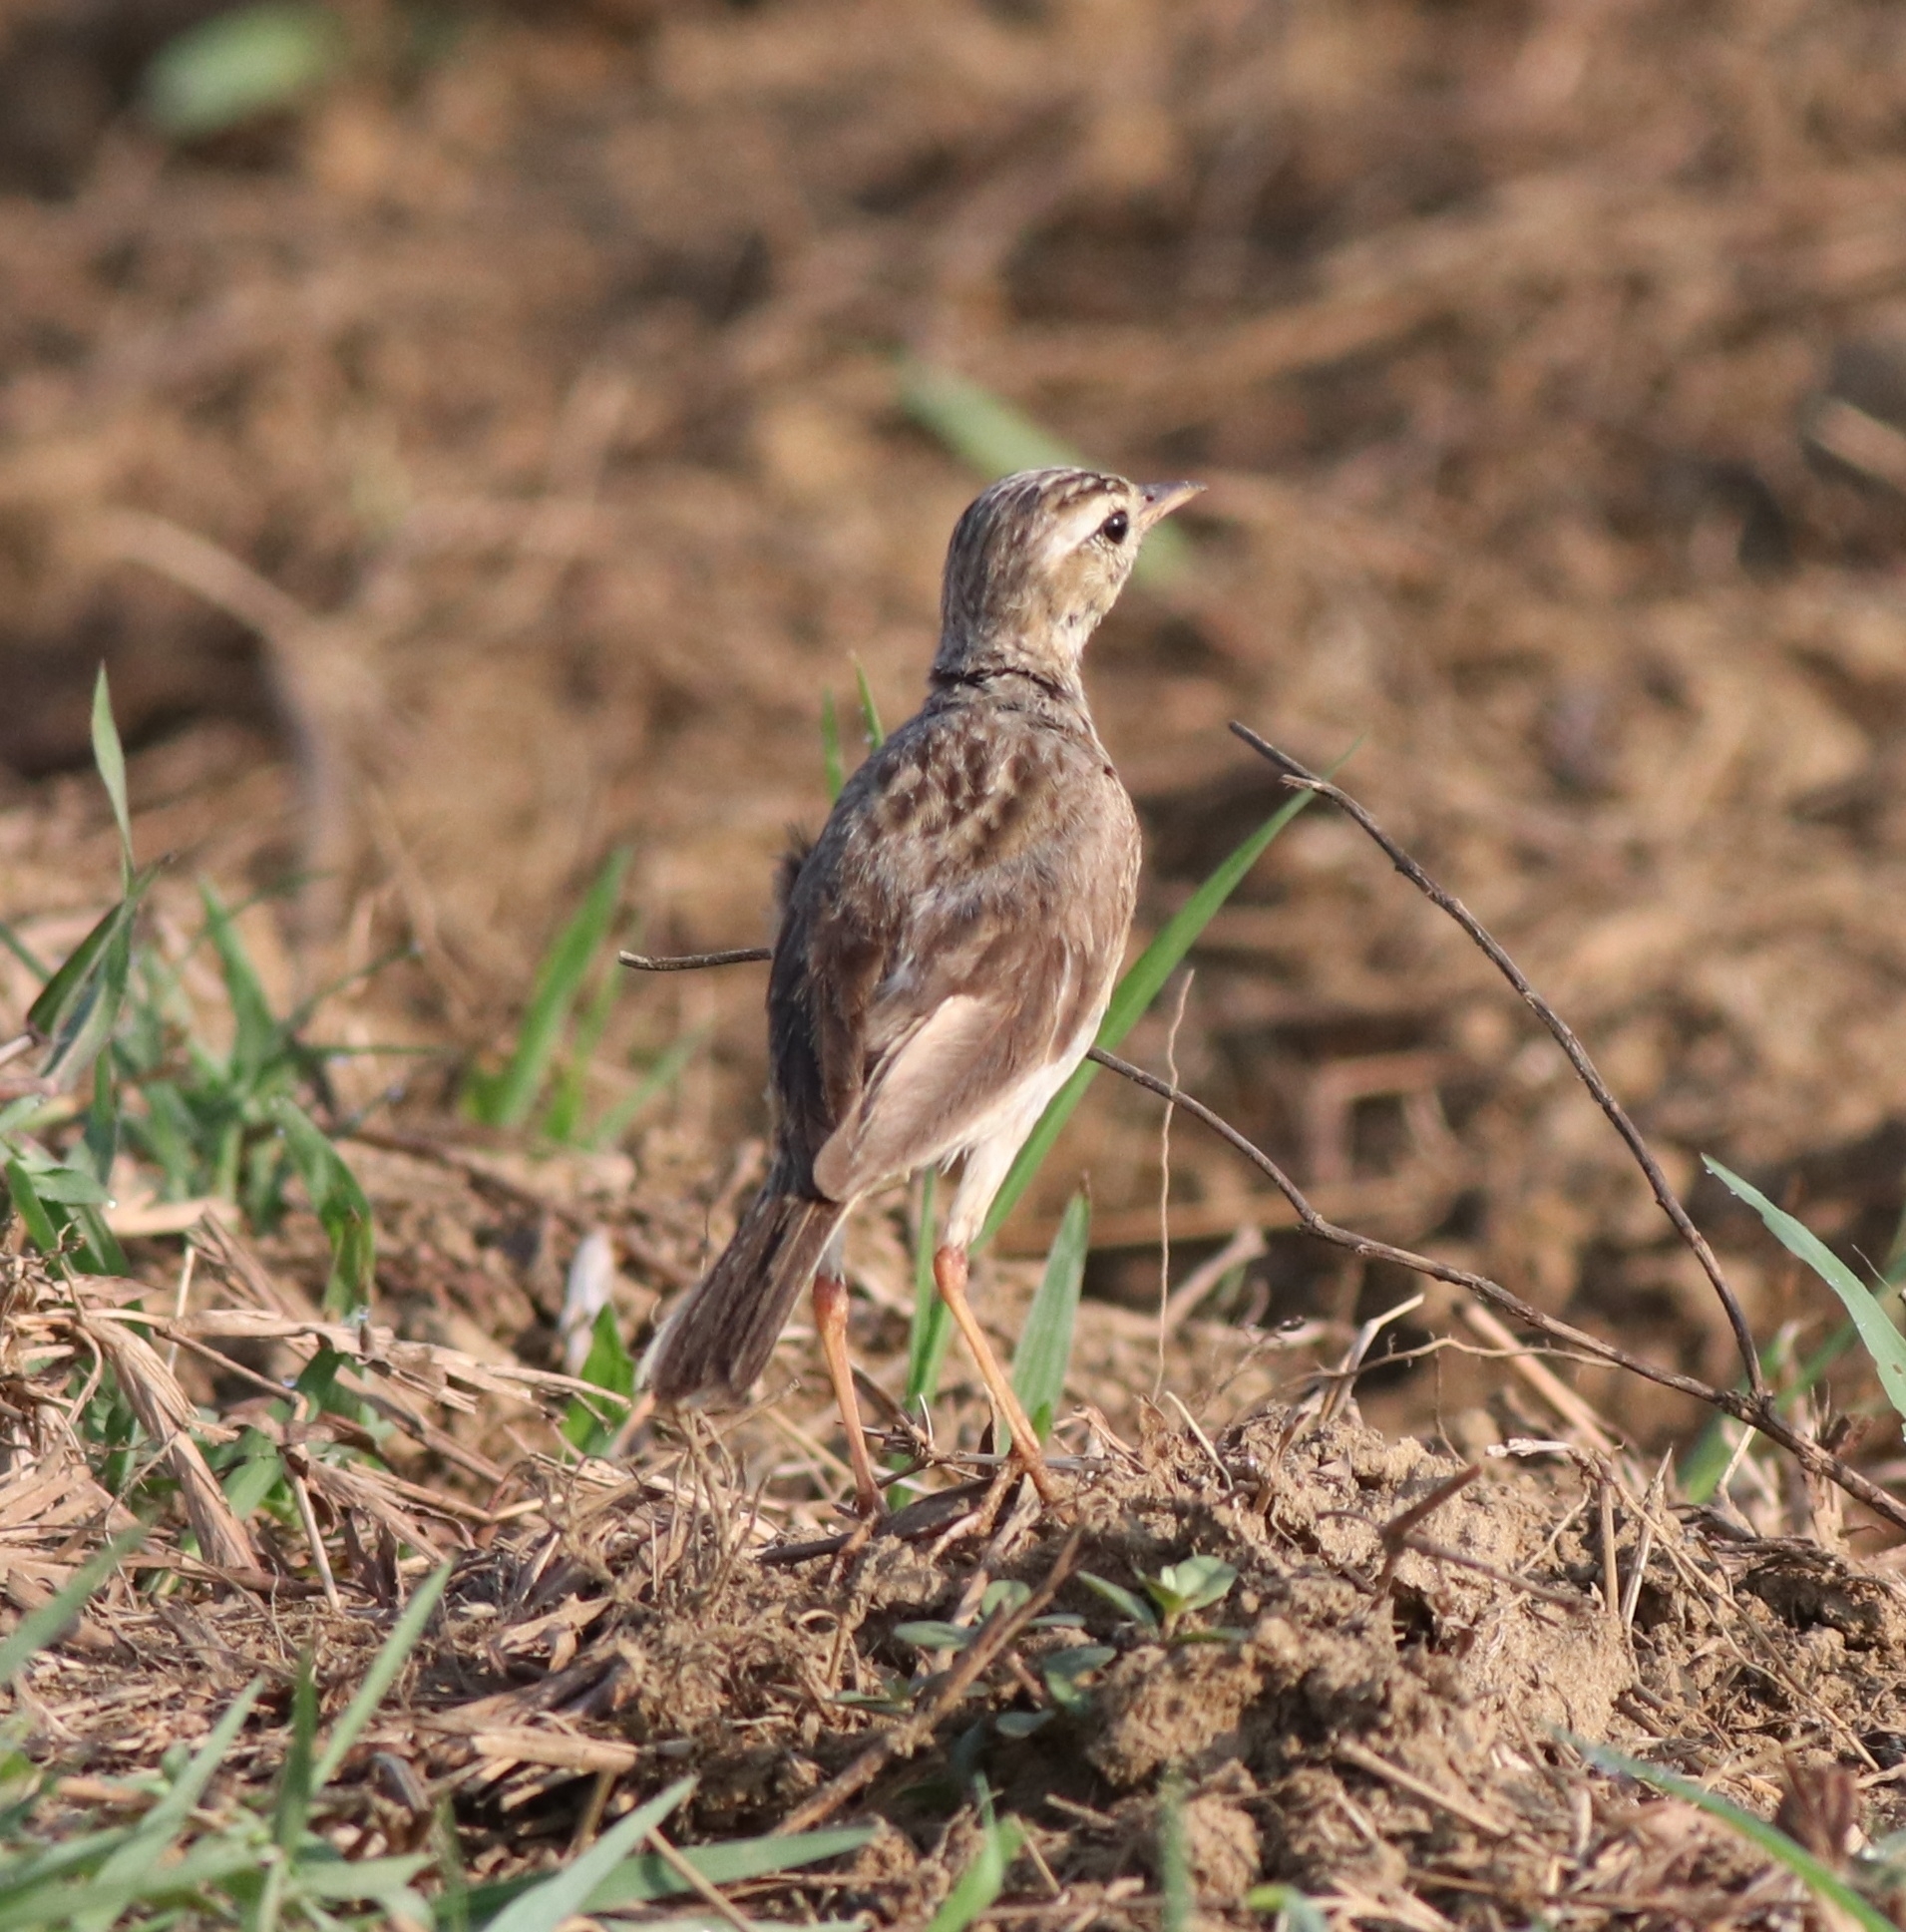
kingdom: Animalia
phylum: Chordata
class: Aves
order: Passeriformes
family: Motacillidae
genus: Anthus
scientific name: Anthus rufulus
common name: Paddyfield pipit
